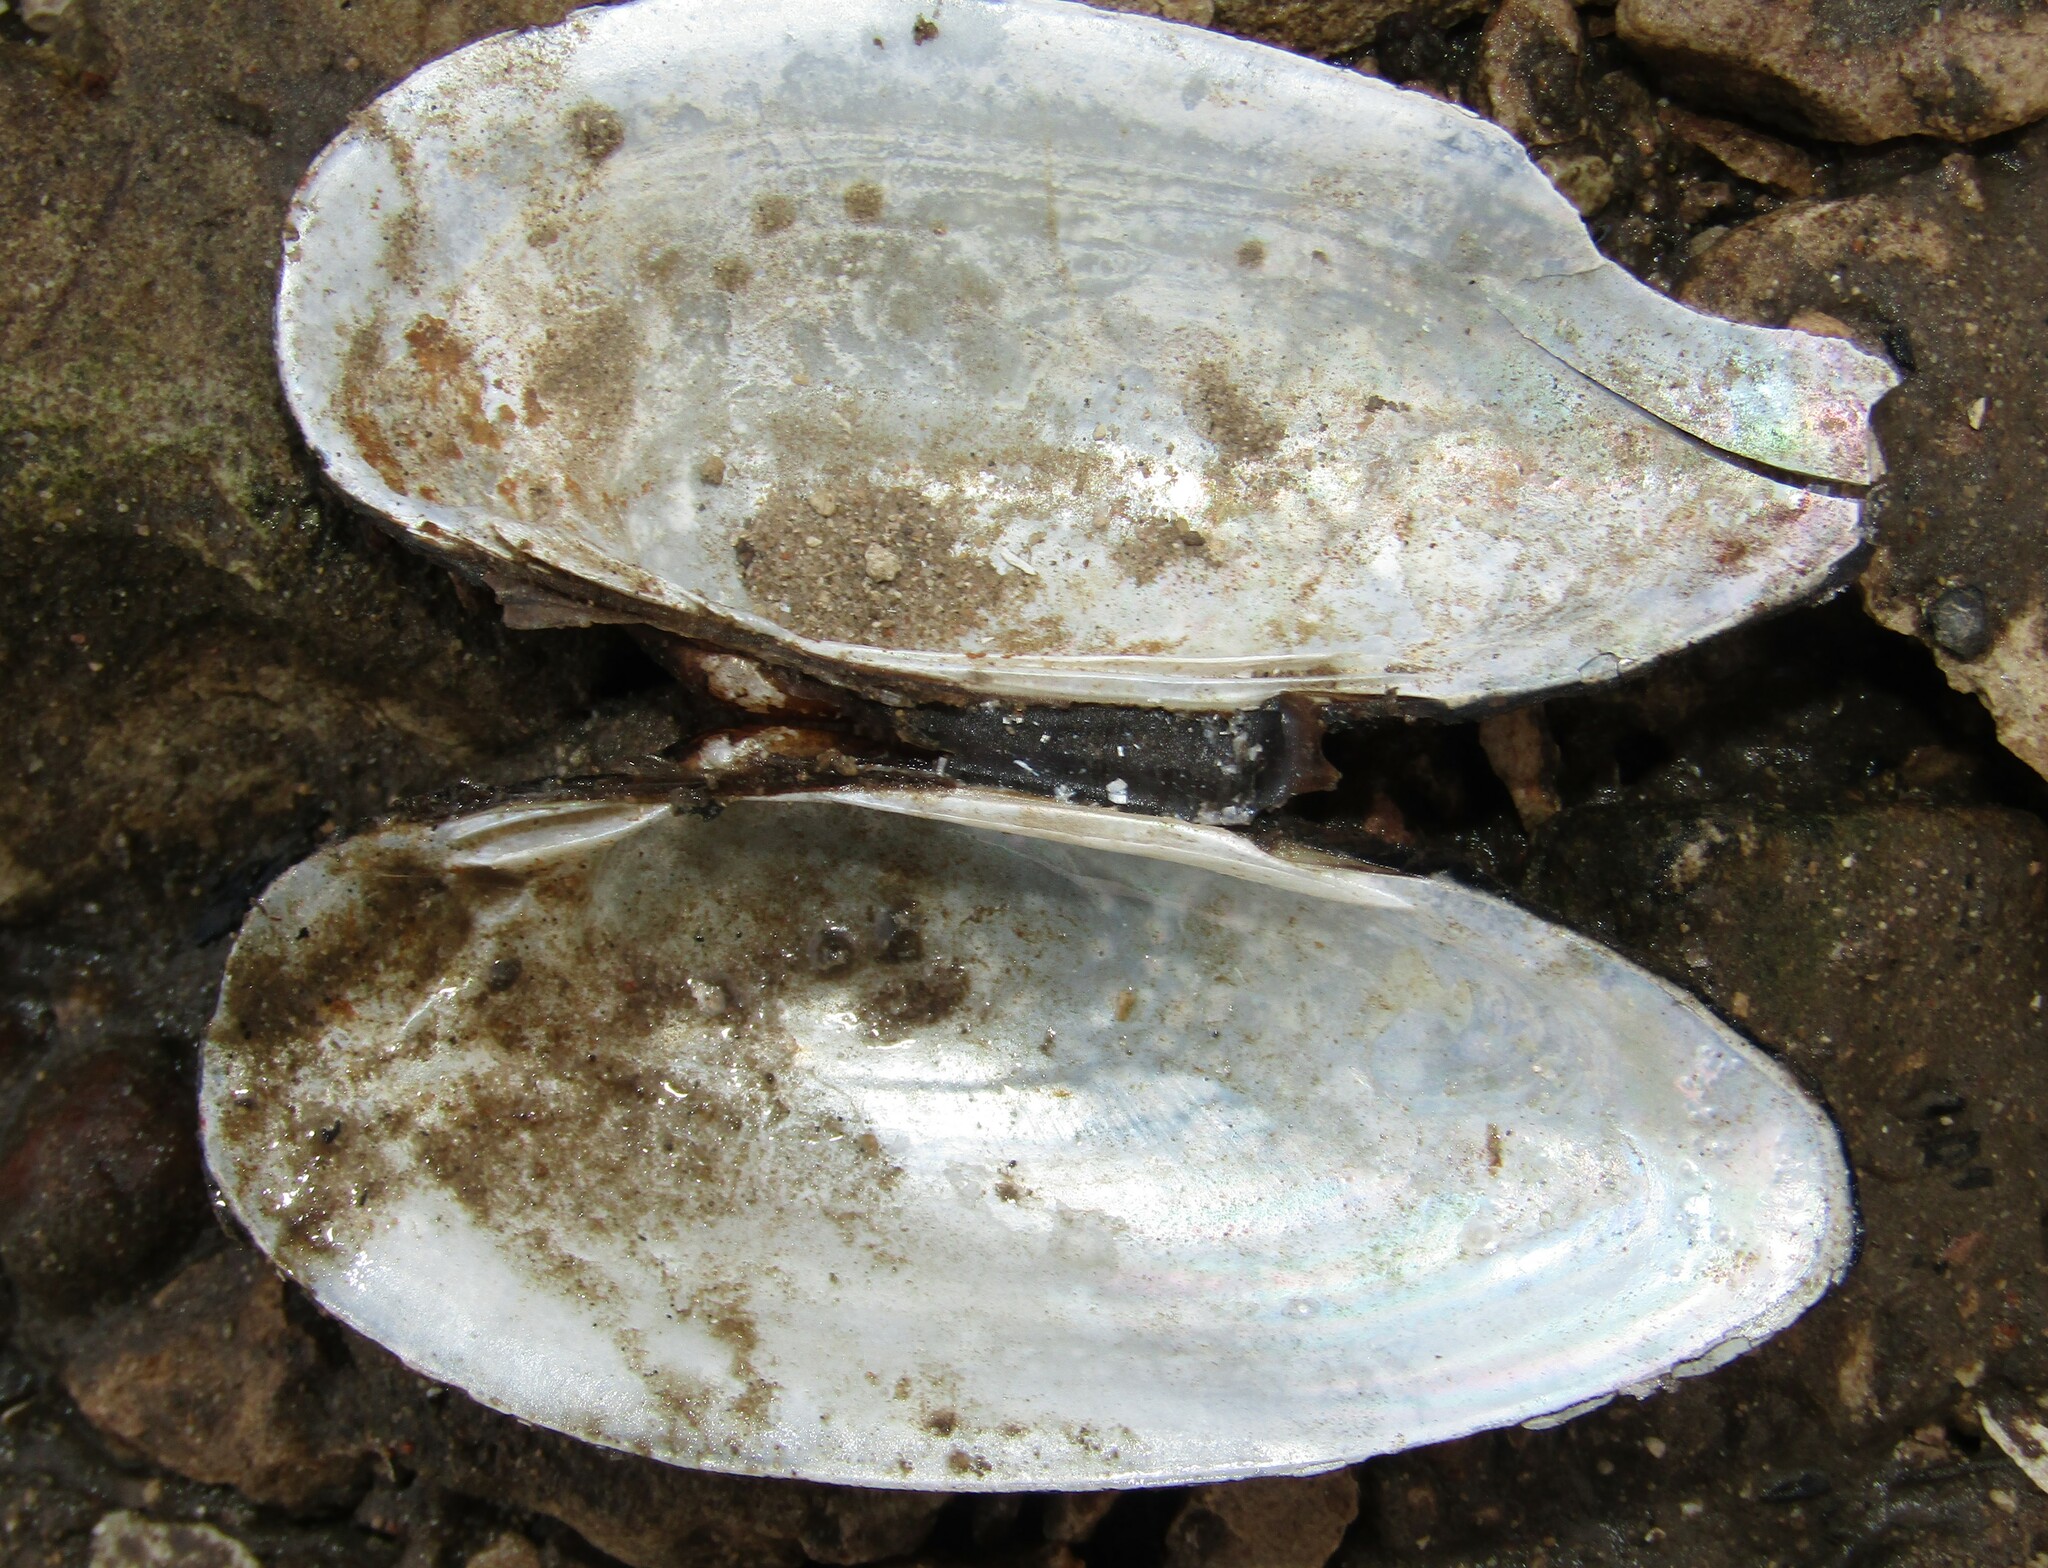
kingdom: Animalia
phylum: Mollusca
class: Bivalvia
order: Unionida
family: Unionidae
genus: Unio
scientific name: Unio pictorum
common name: Painter's mussel
